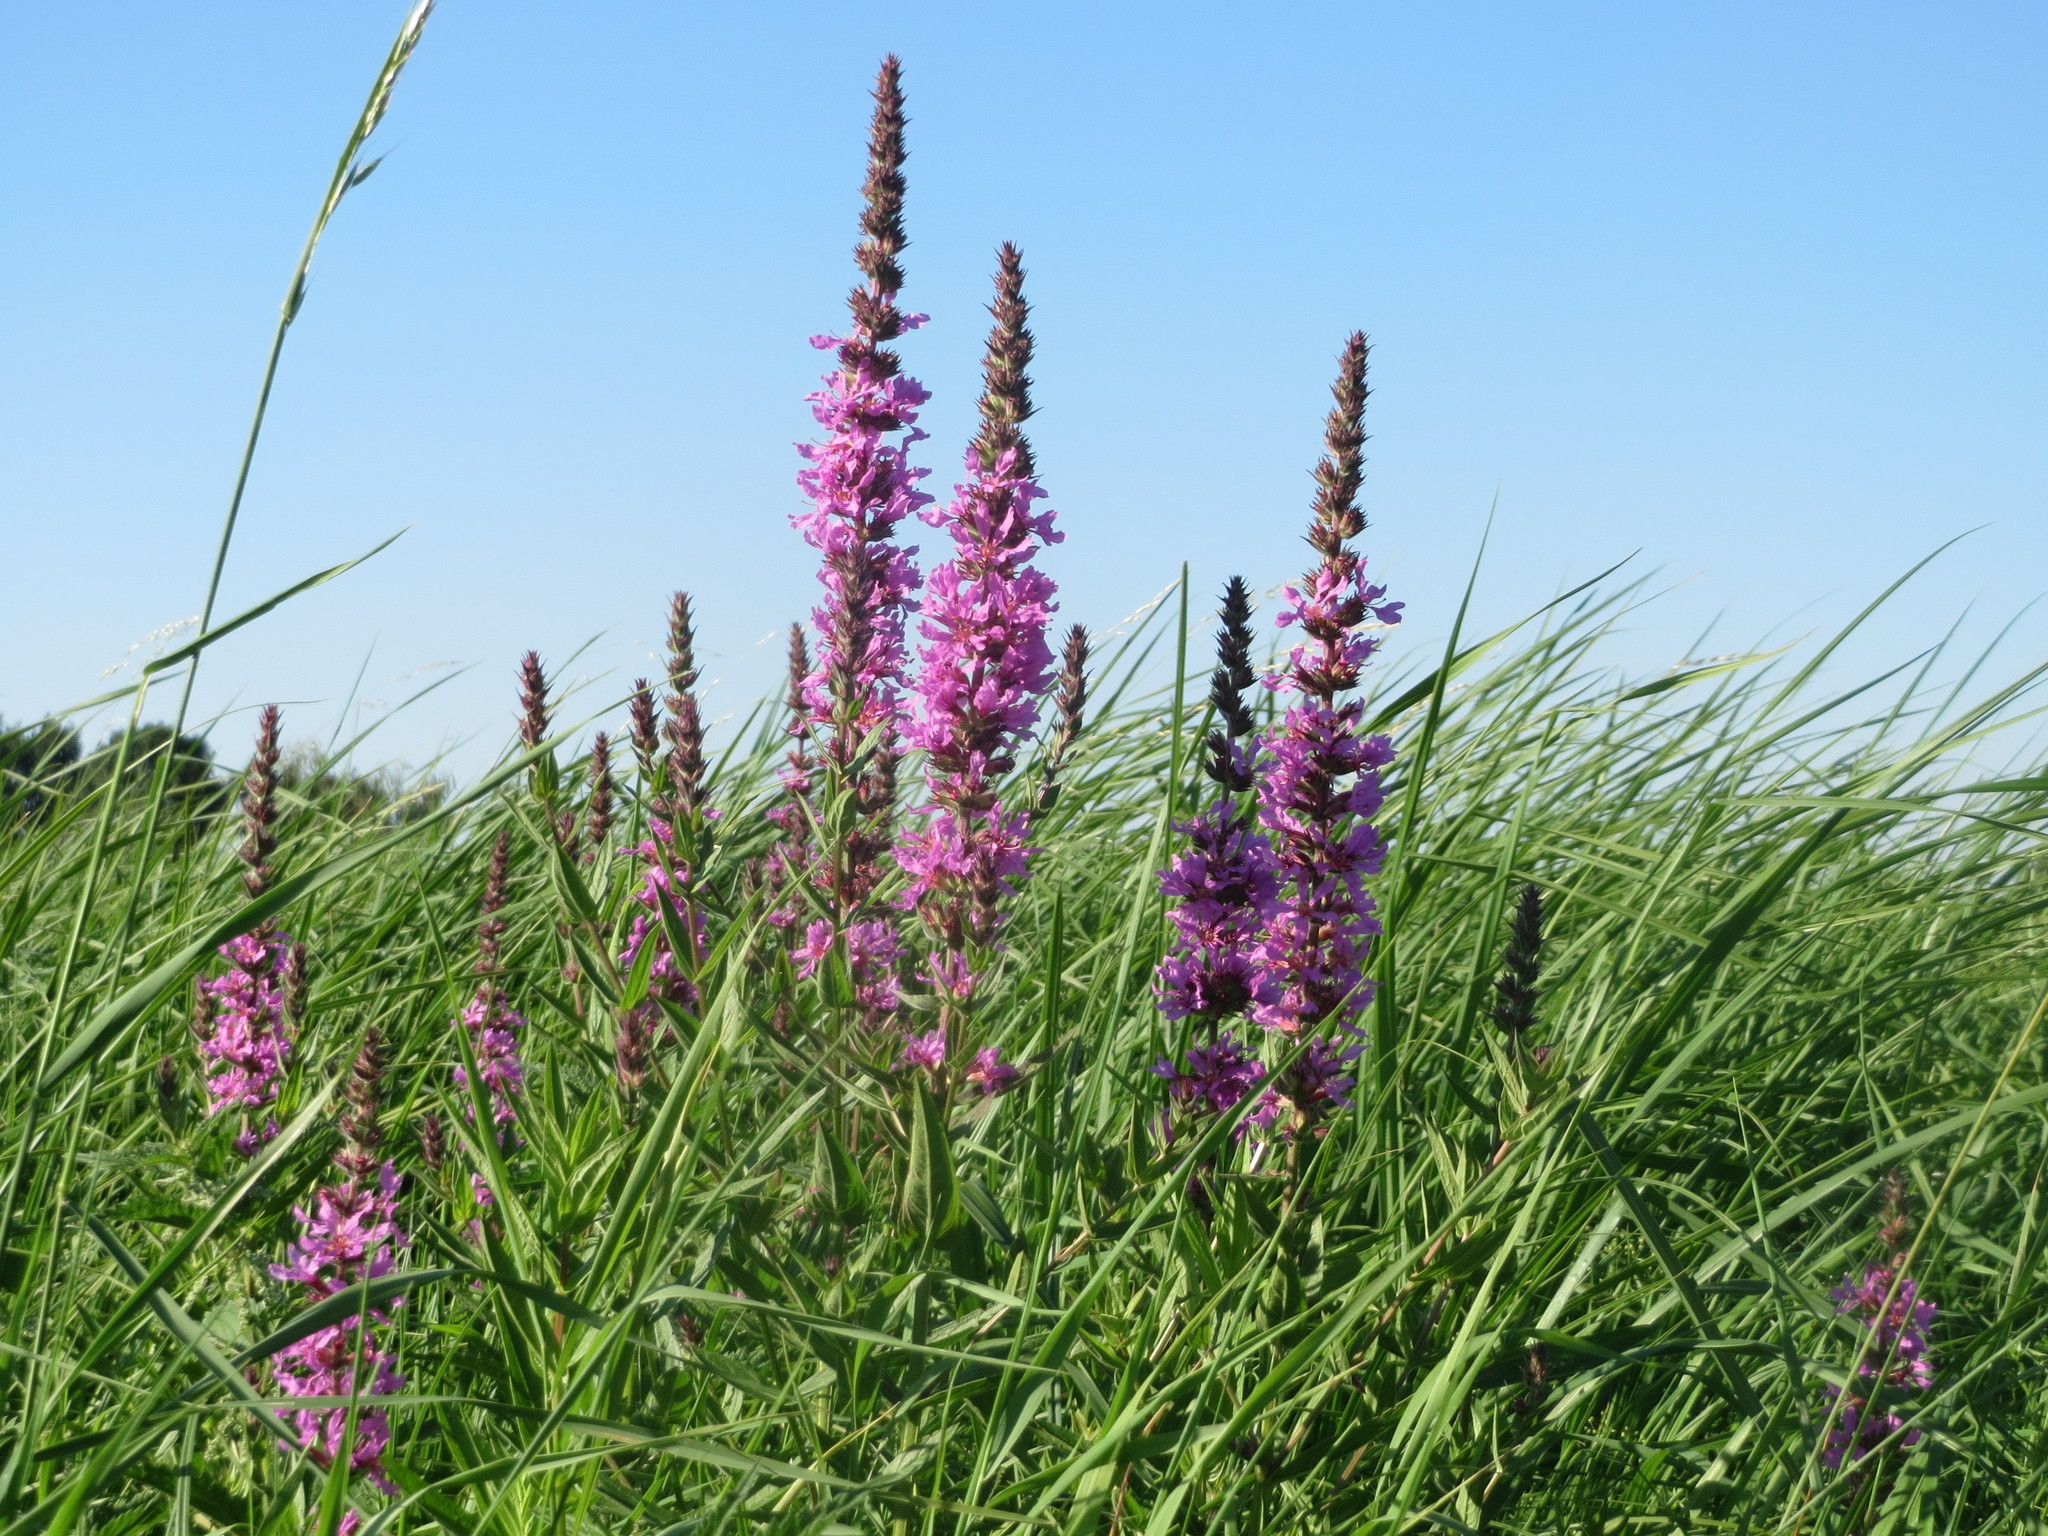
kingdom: Plantae
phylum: Tracheophyta
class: Magnoliopsida
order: Myrtales
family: Lythraceae
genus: Lythrum
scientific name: Lythrum salicaria
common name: Purple loosestrife
